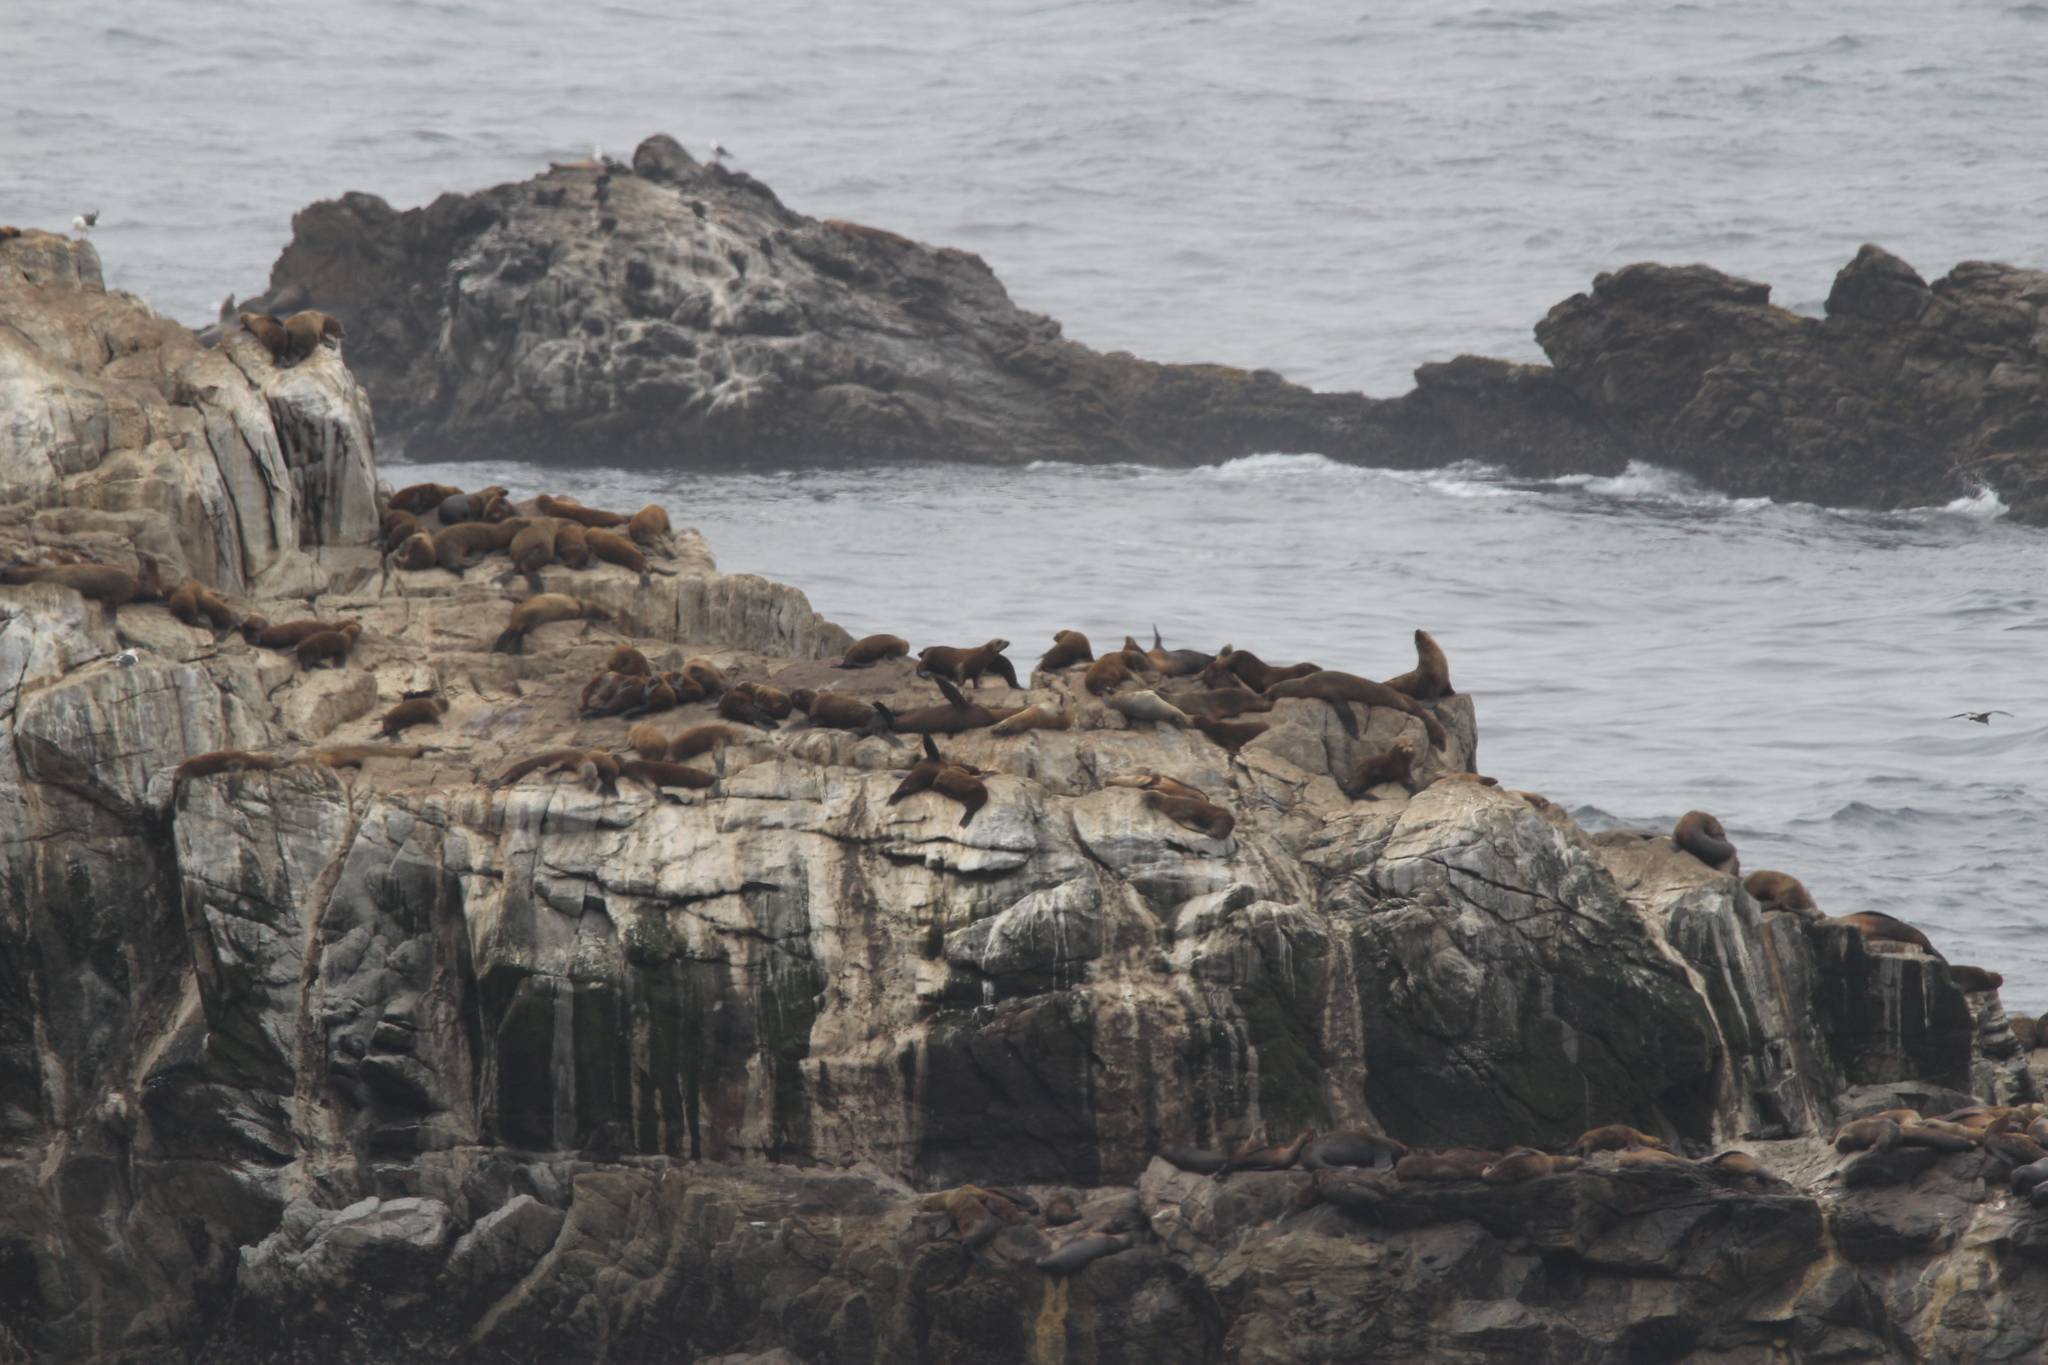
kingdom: Animalia
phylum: Chordata
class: Mammalia
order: Carnivora
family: Otariidae
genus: Zalophus
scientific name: Zalophus californianus
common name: California sea lion
